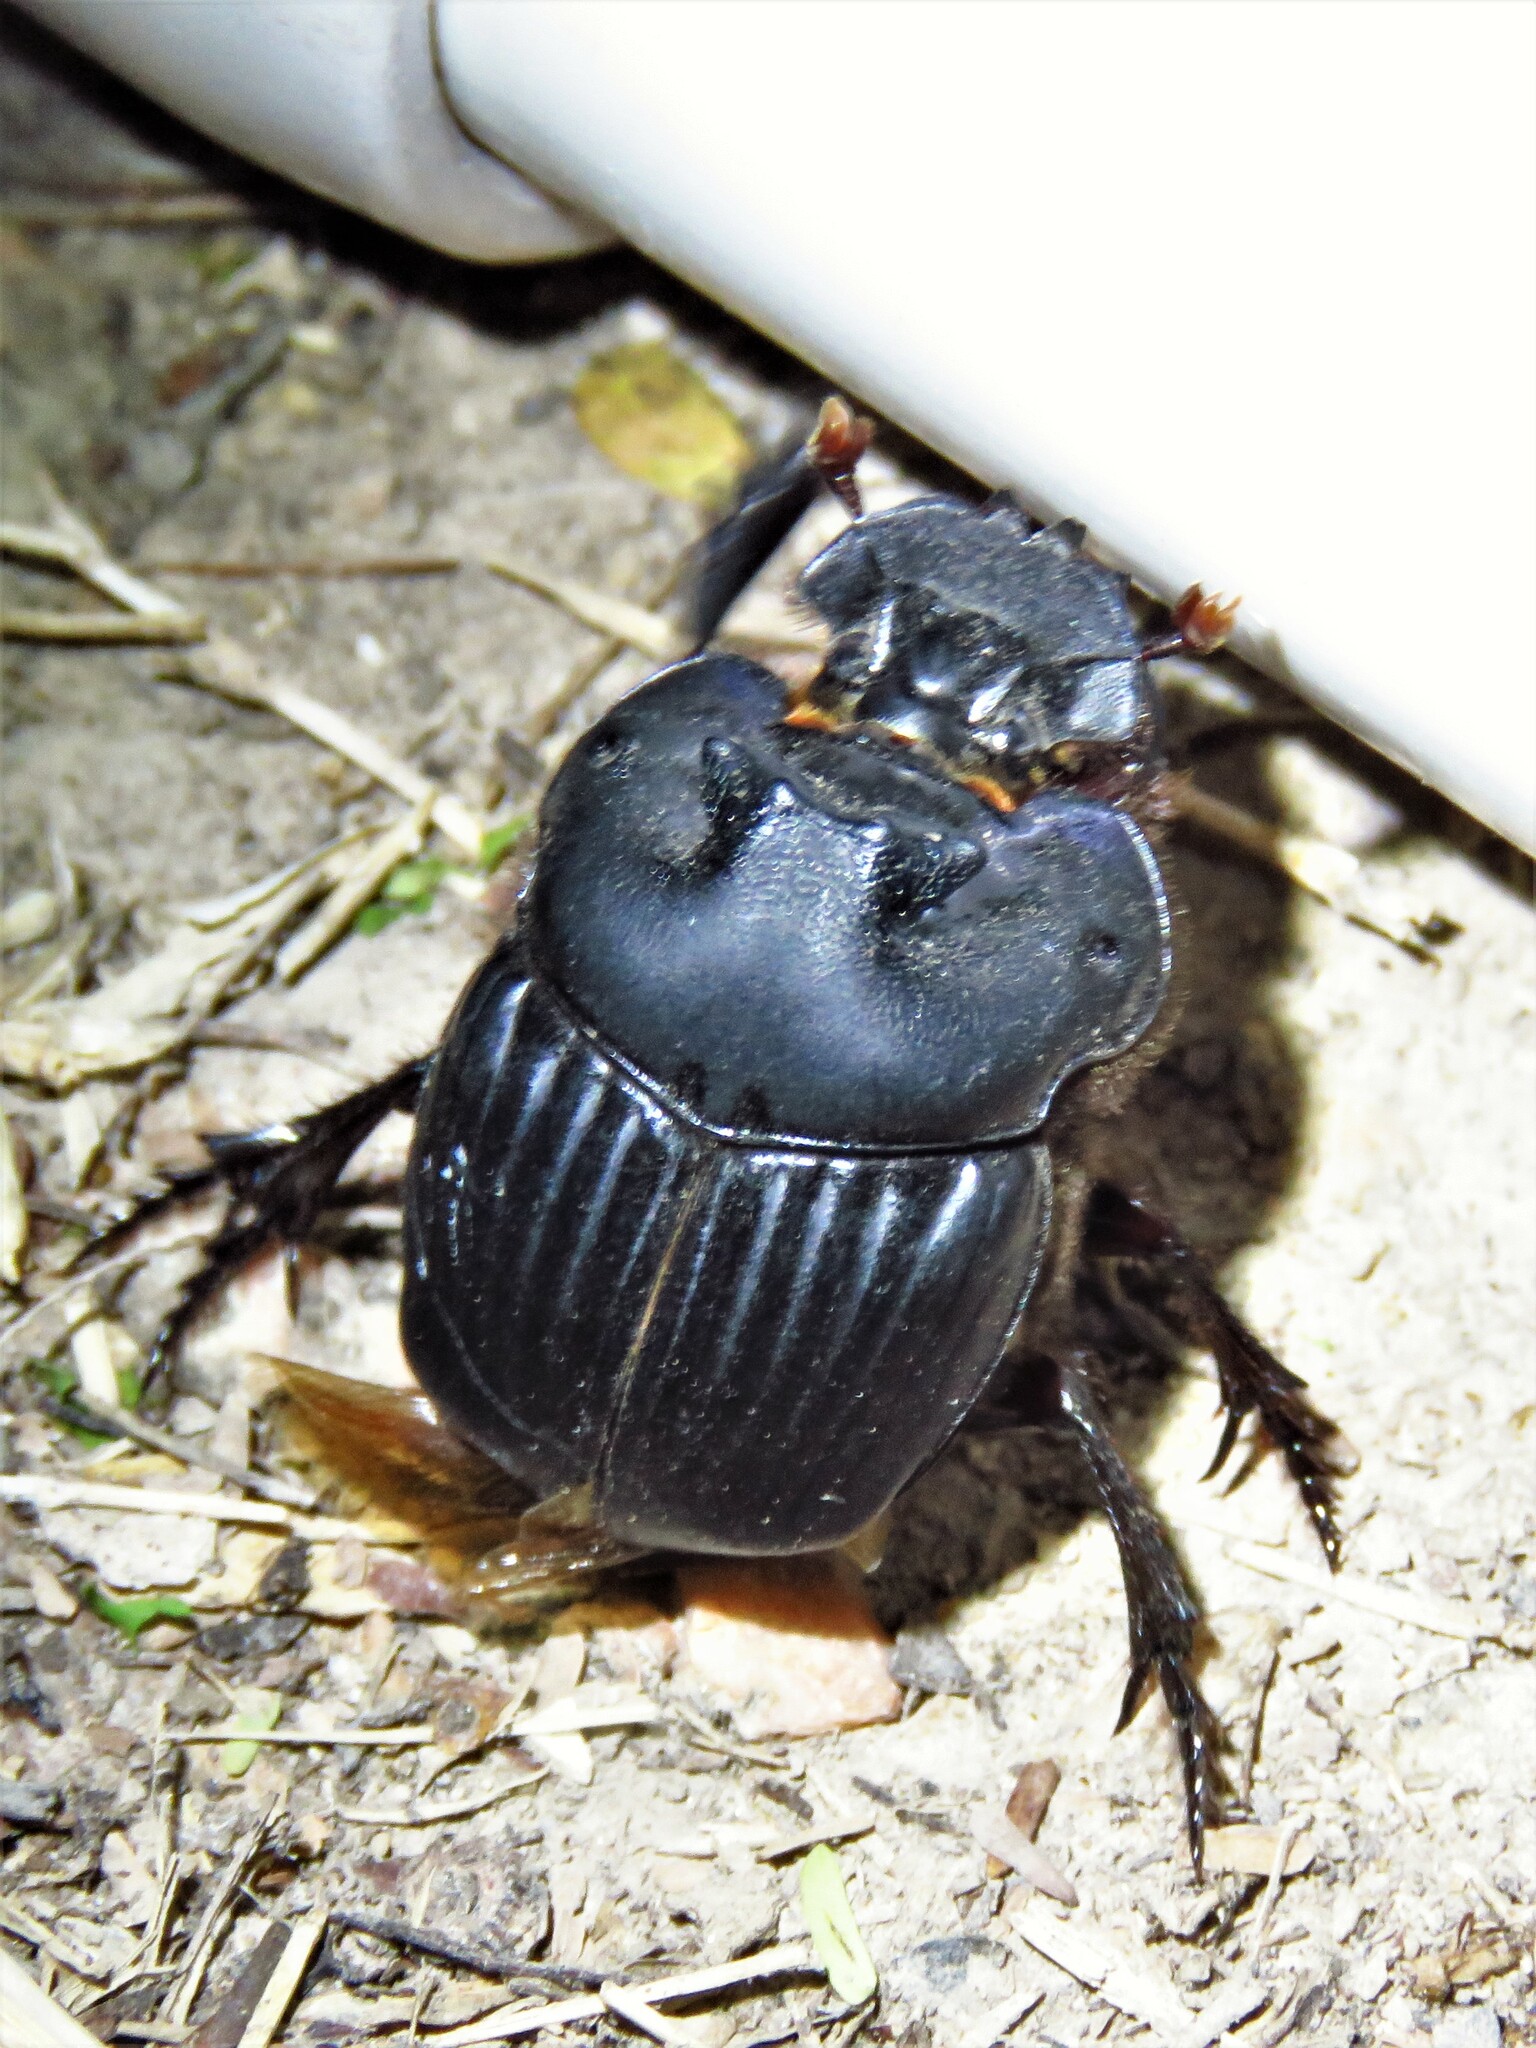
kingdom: Animalia
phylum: Arthropoda
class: Insecta
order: Coleoptera
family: Scarabaeidae
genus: Coprophanaeus
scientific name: Coprophanaeus pluto
